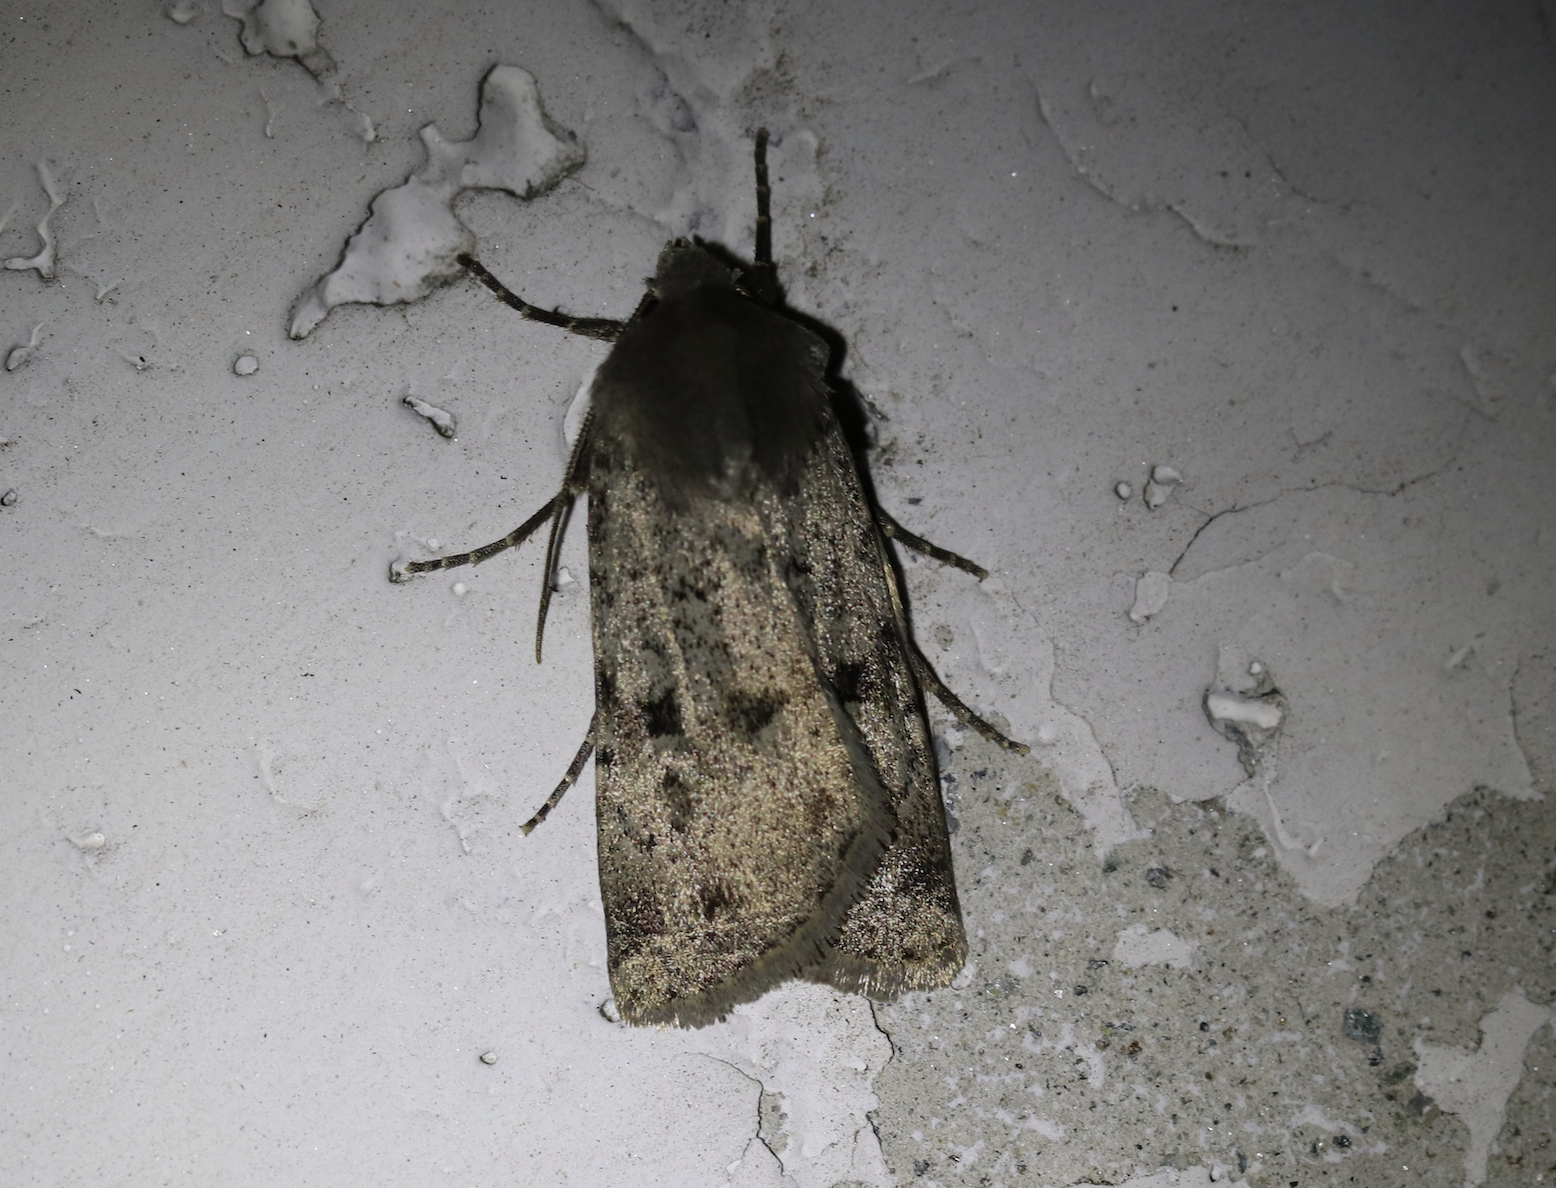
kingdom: Animalia
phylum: Arthropoda
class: Insecta
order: Lepidoptera
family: Noctuidae
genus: Epipsilia
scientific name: Epipsilia grisescens
